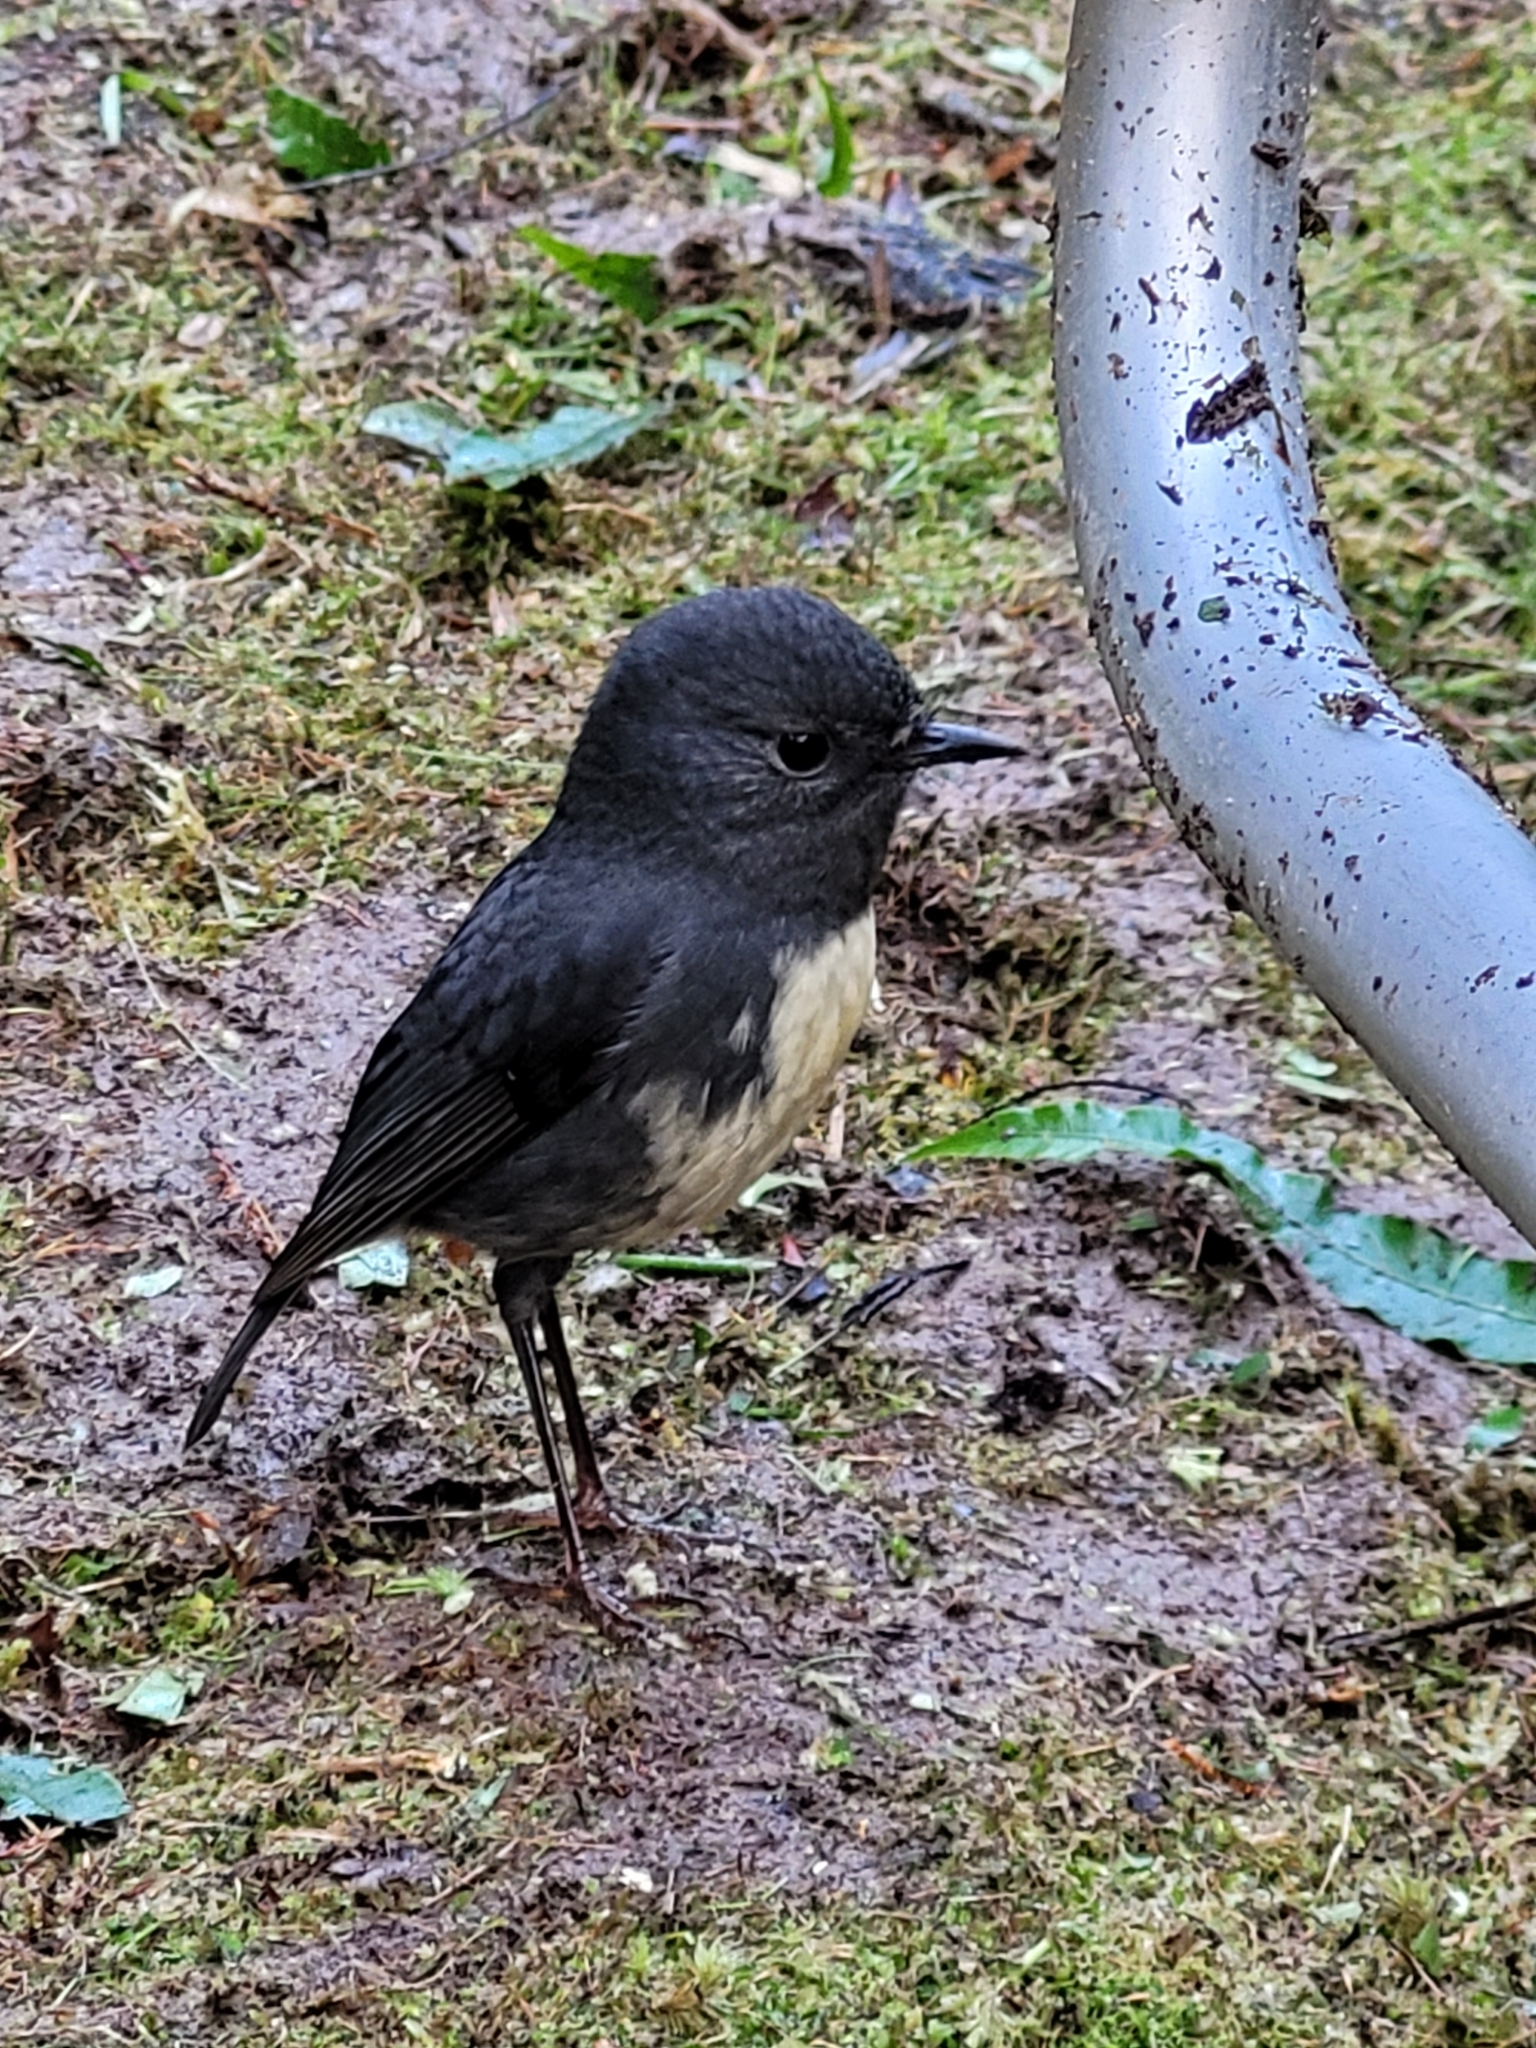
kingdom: Animalia
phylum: Chordata
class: Aves
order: Passeriformes
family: Petroicidae
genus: Petroica
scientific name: Petroica australis
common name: New zealand robin
